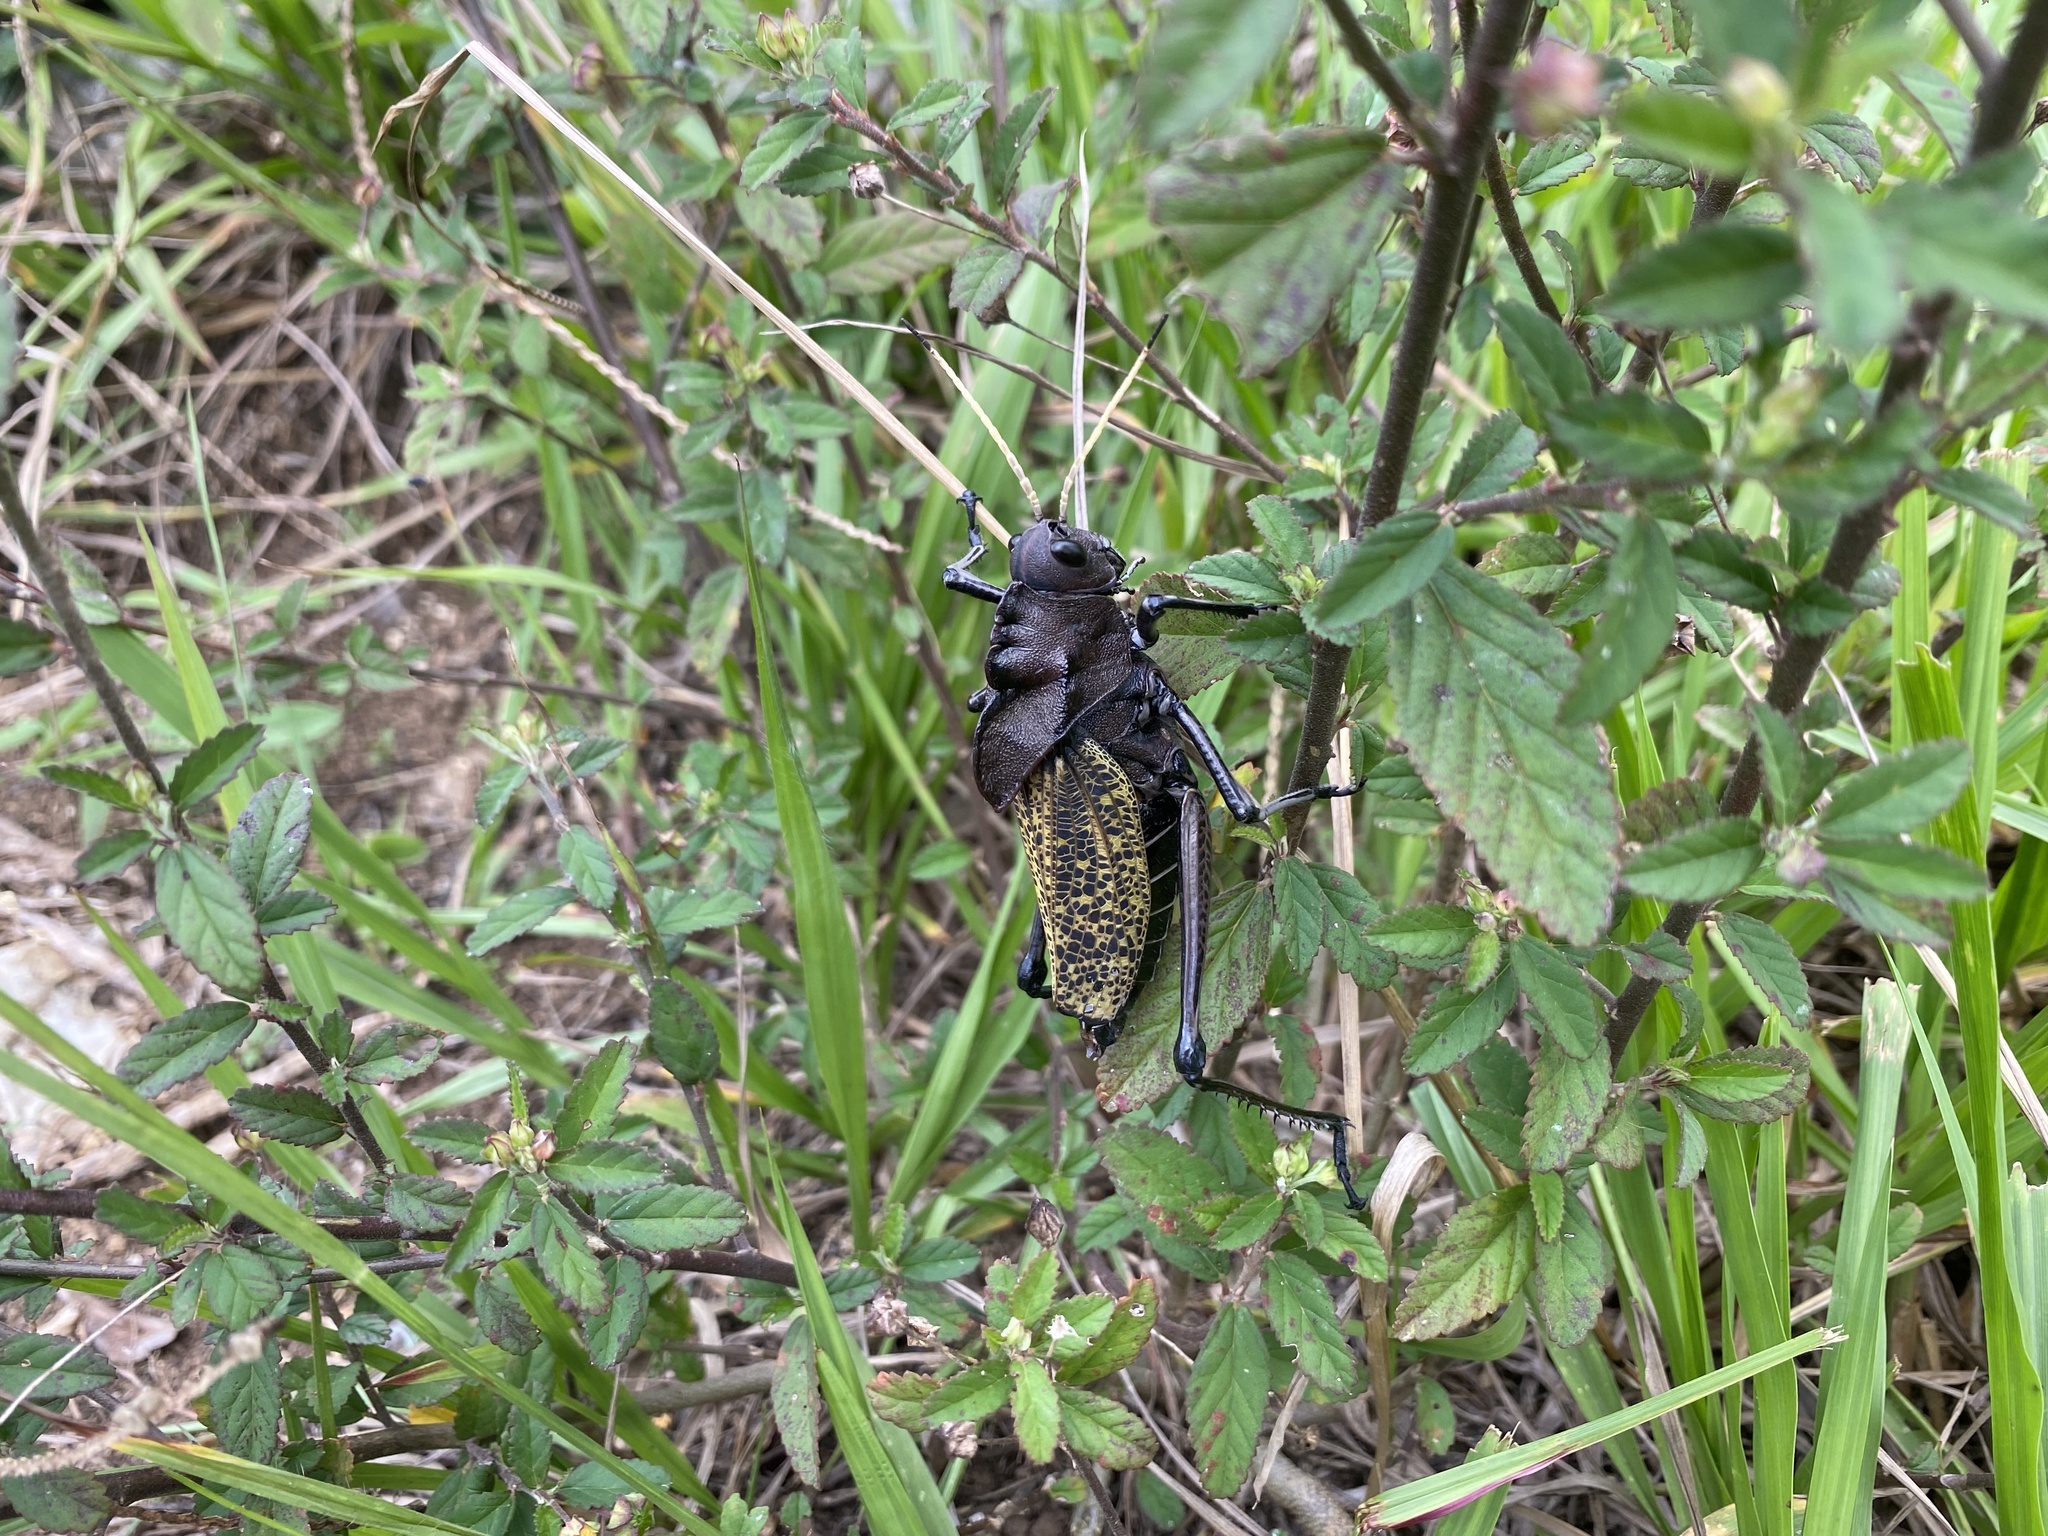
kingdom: Animalia
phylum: Arthropoda
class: Insecta
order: Orthoptera
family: Romaleidae
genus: Taeniopoda
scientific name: Taeniopoda centurio
